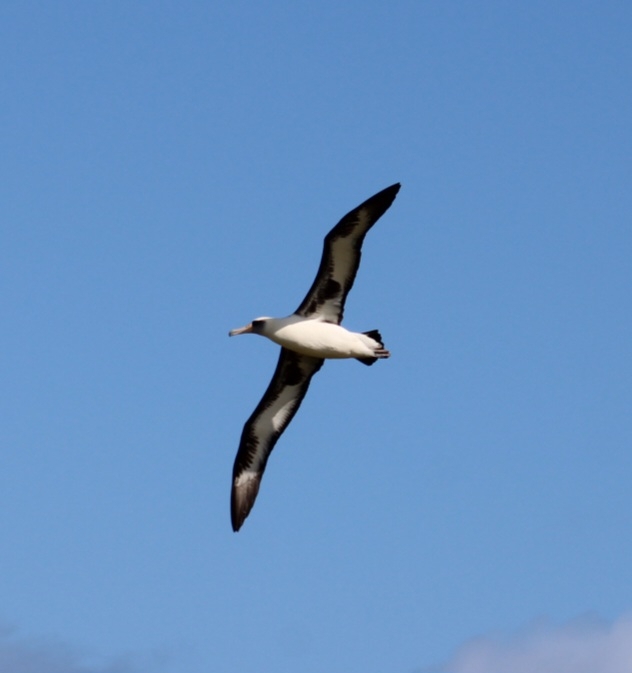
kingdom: Animalia
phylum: Chordata
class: Aves
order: Procellariiformes
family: Diomedeidae
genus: Phoebastria
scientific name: Phoebastria immutabilis
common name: Laysan albatross
